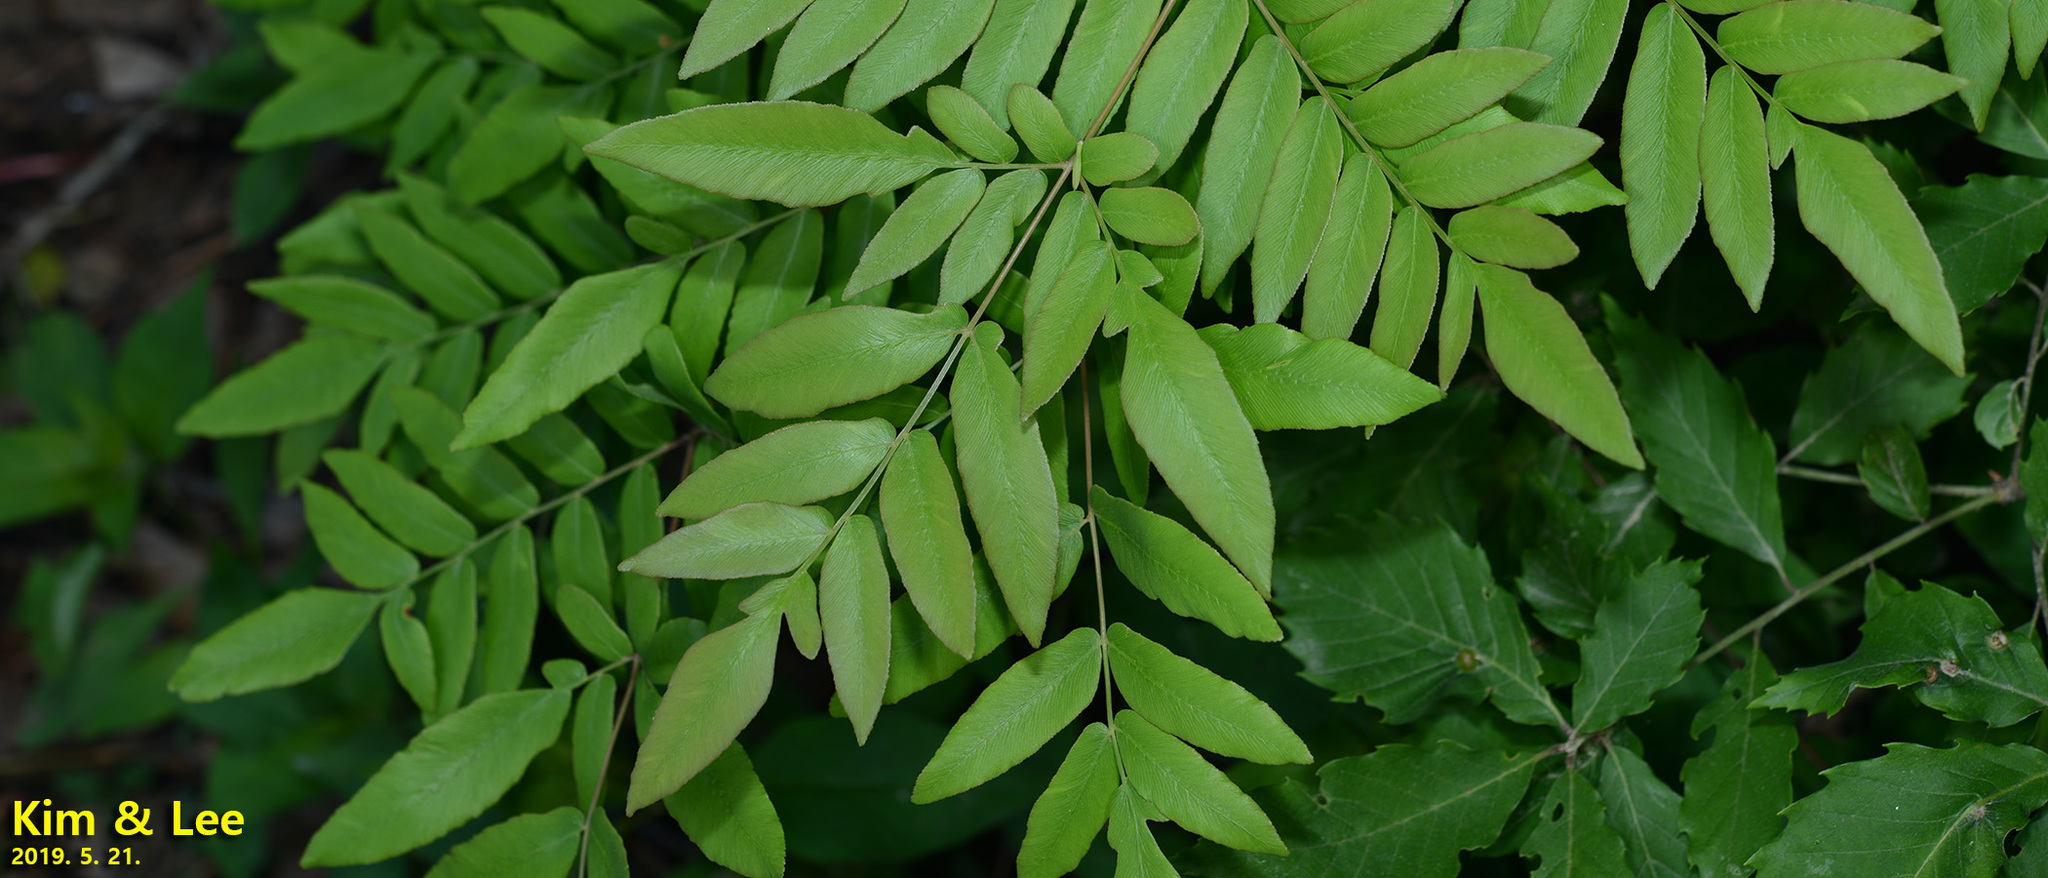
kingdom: Plantae
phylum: Tracheophyta
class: Polypodiopsida
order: Osmundales
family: Osmundaceae
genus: Osmunda
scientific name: Osmunda japonica
